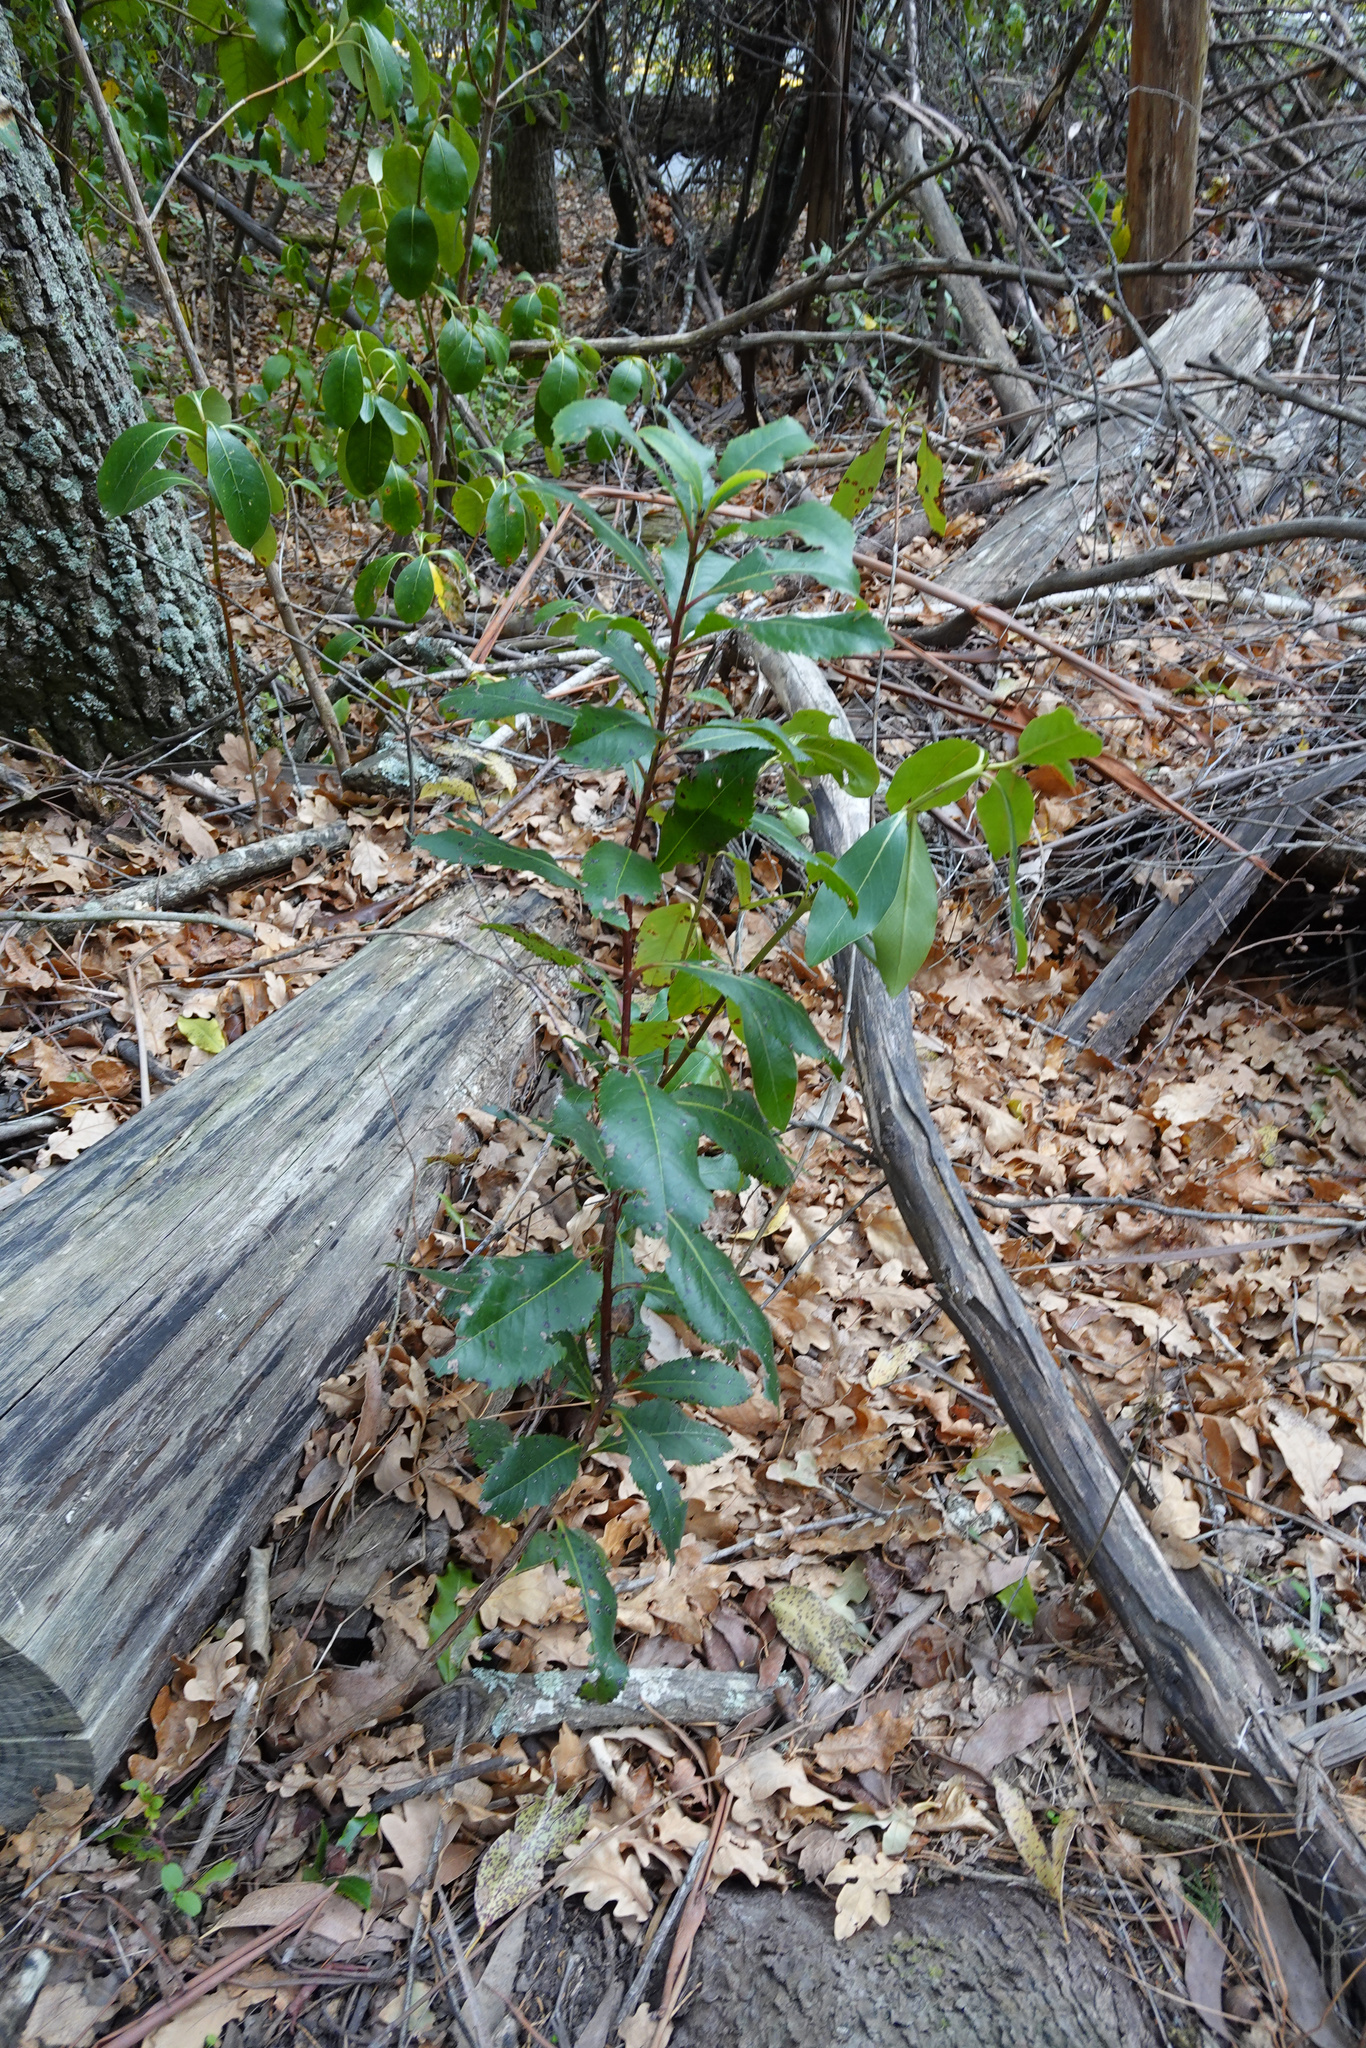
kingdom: Plantae
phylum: Tracheophyta
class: Magnoliopsida
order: Ericales
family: Ericaceae
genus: Arbutus
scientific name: Arbutus unedo
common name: Strawberry-tree
